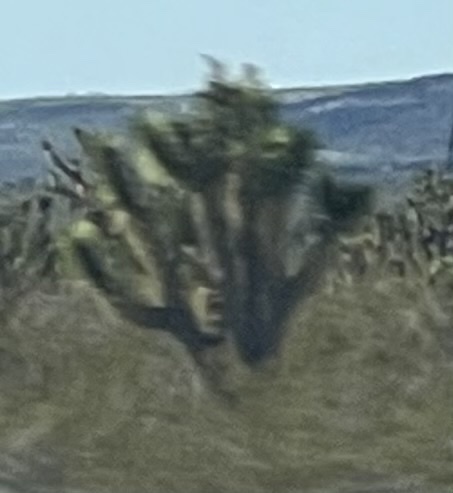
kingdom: Plantae
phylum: Tracheophyta
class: Liliopsida
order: Asparagales
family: Asparagaceae
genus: Yucca
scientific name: Yucca brevifolia
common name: Joshua tree
